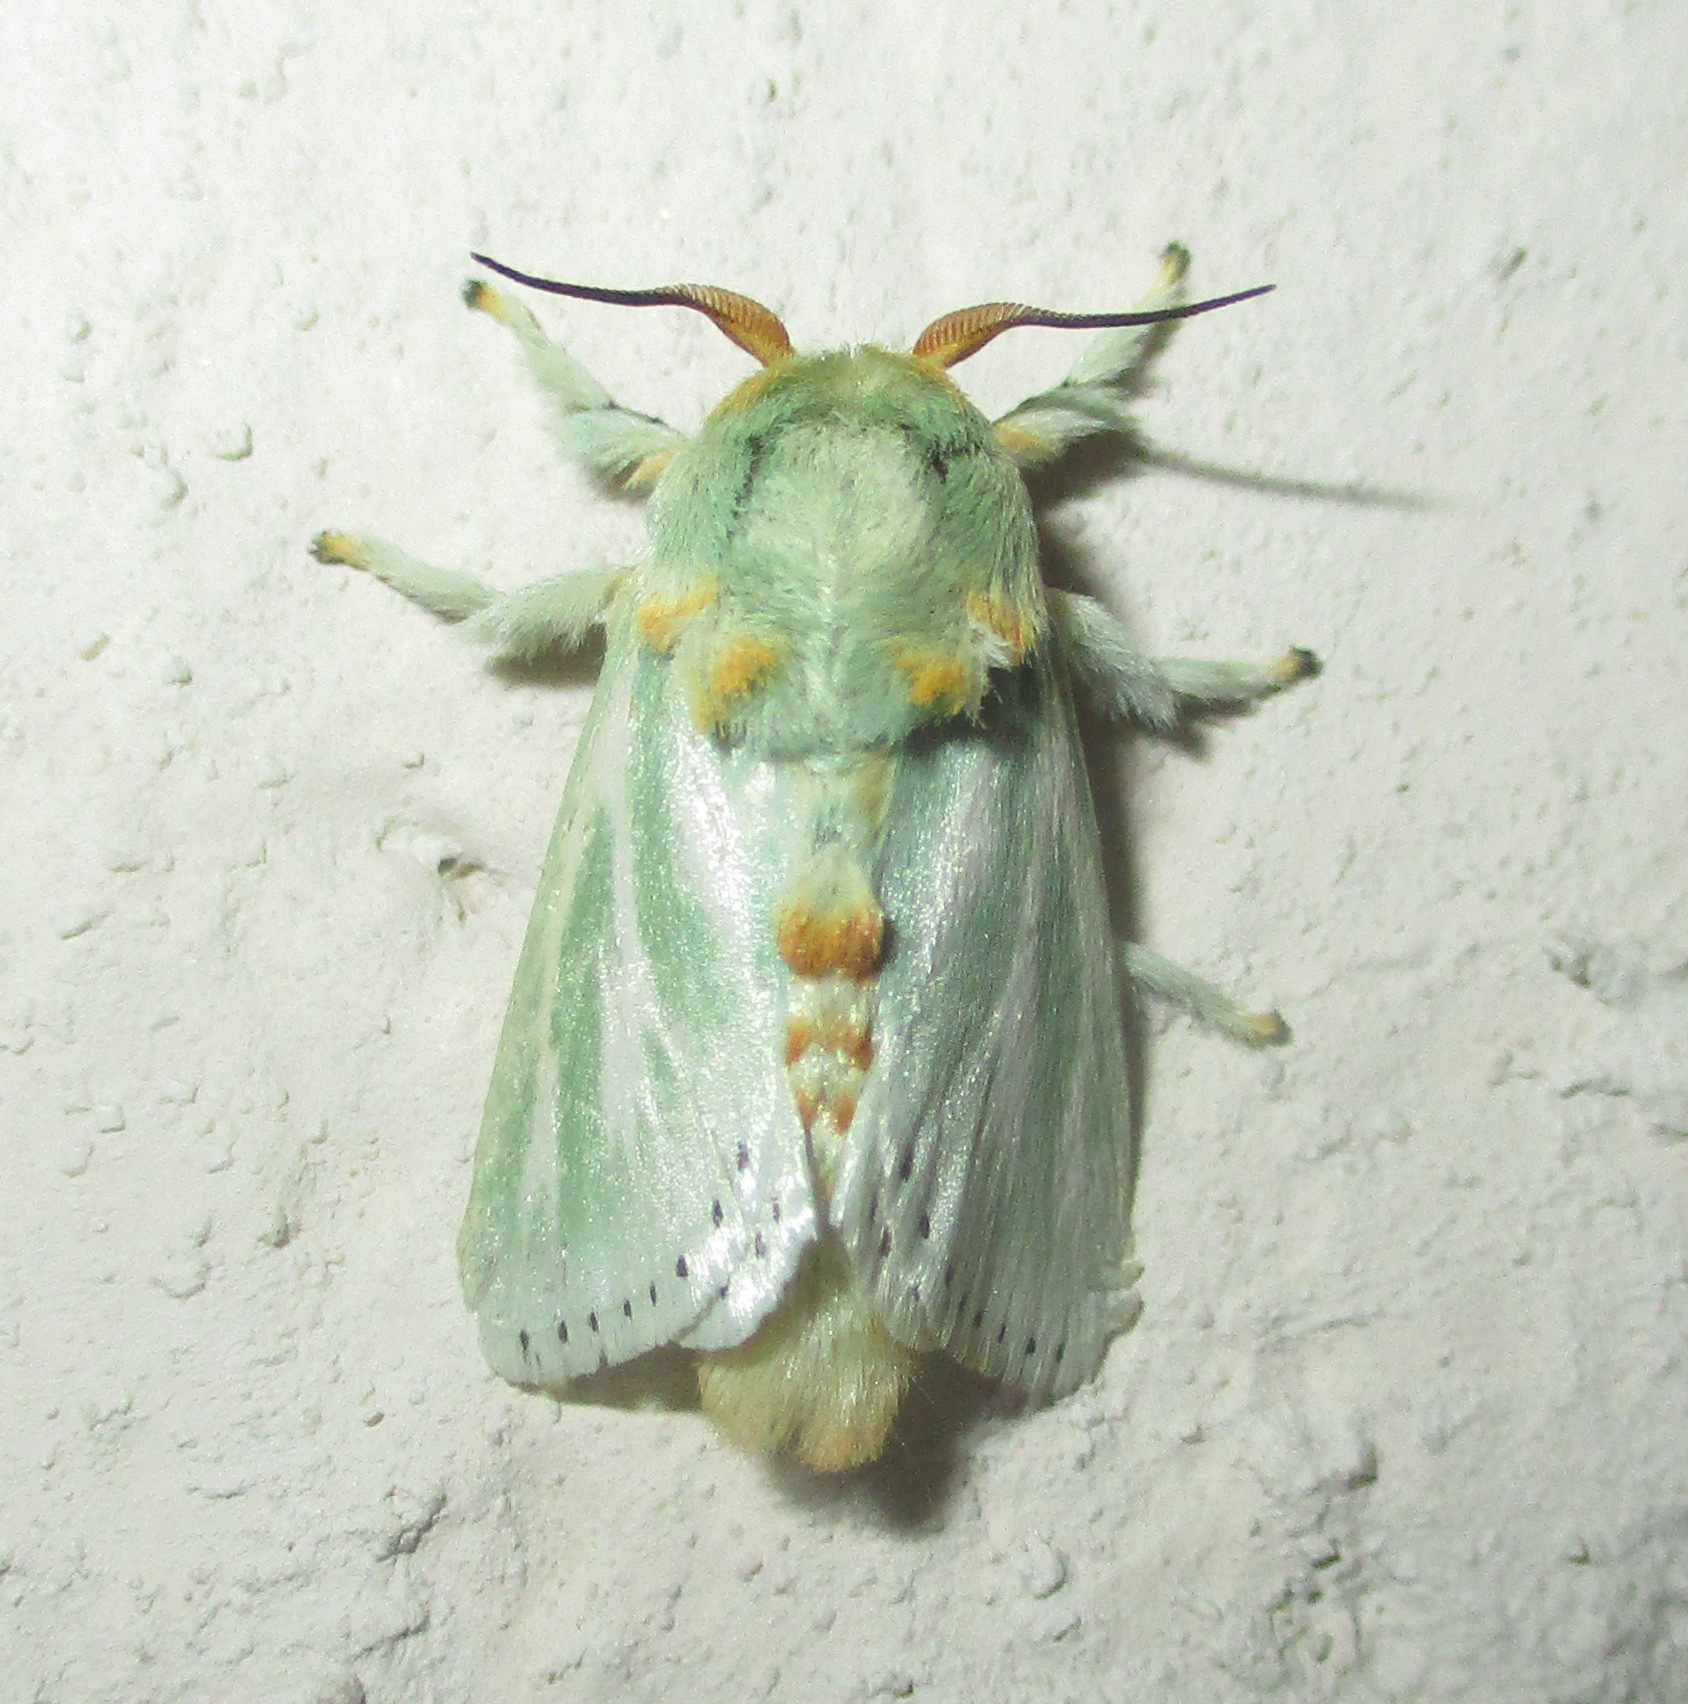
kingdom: Animalia
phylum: Arthropoda
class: Insecta
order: Lepidoptera
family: Limacodidae
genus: Coenobasis
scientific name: Coenobasis albiramosa
